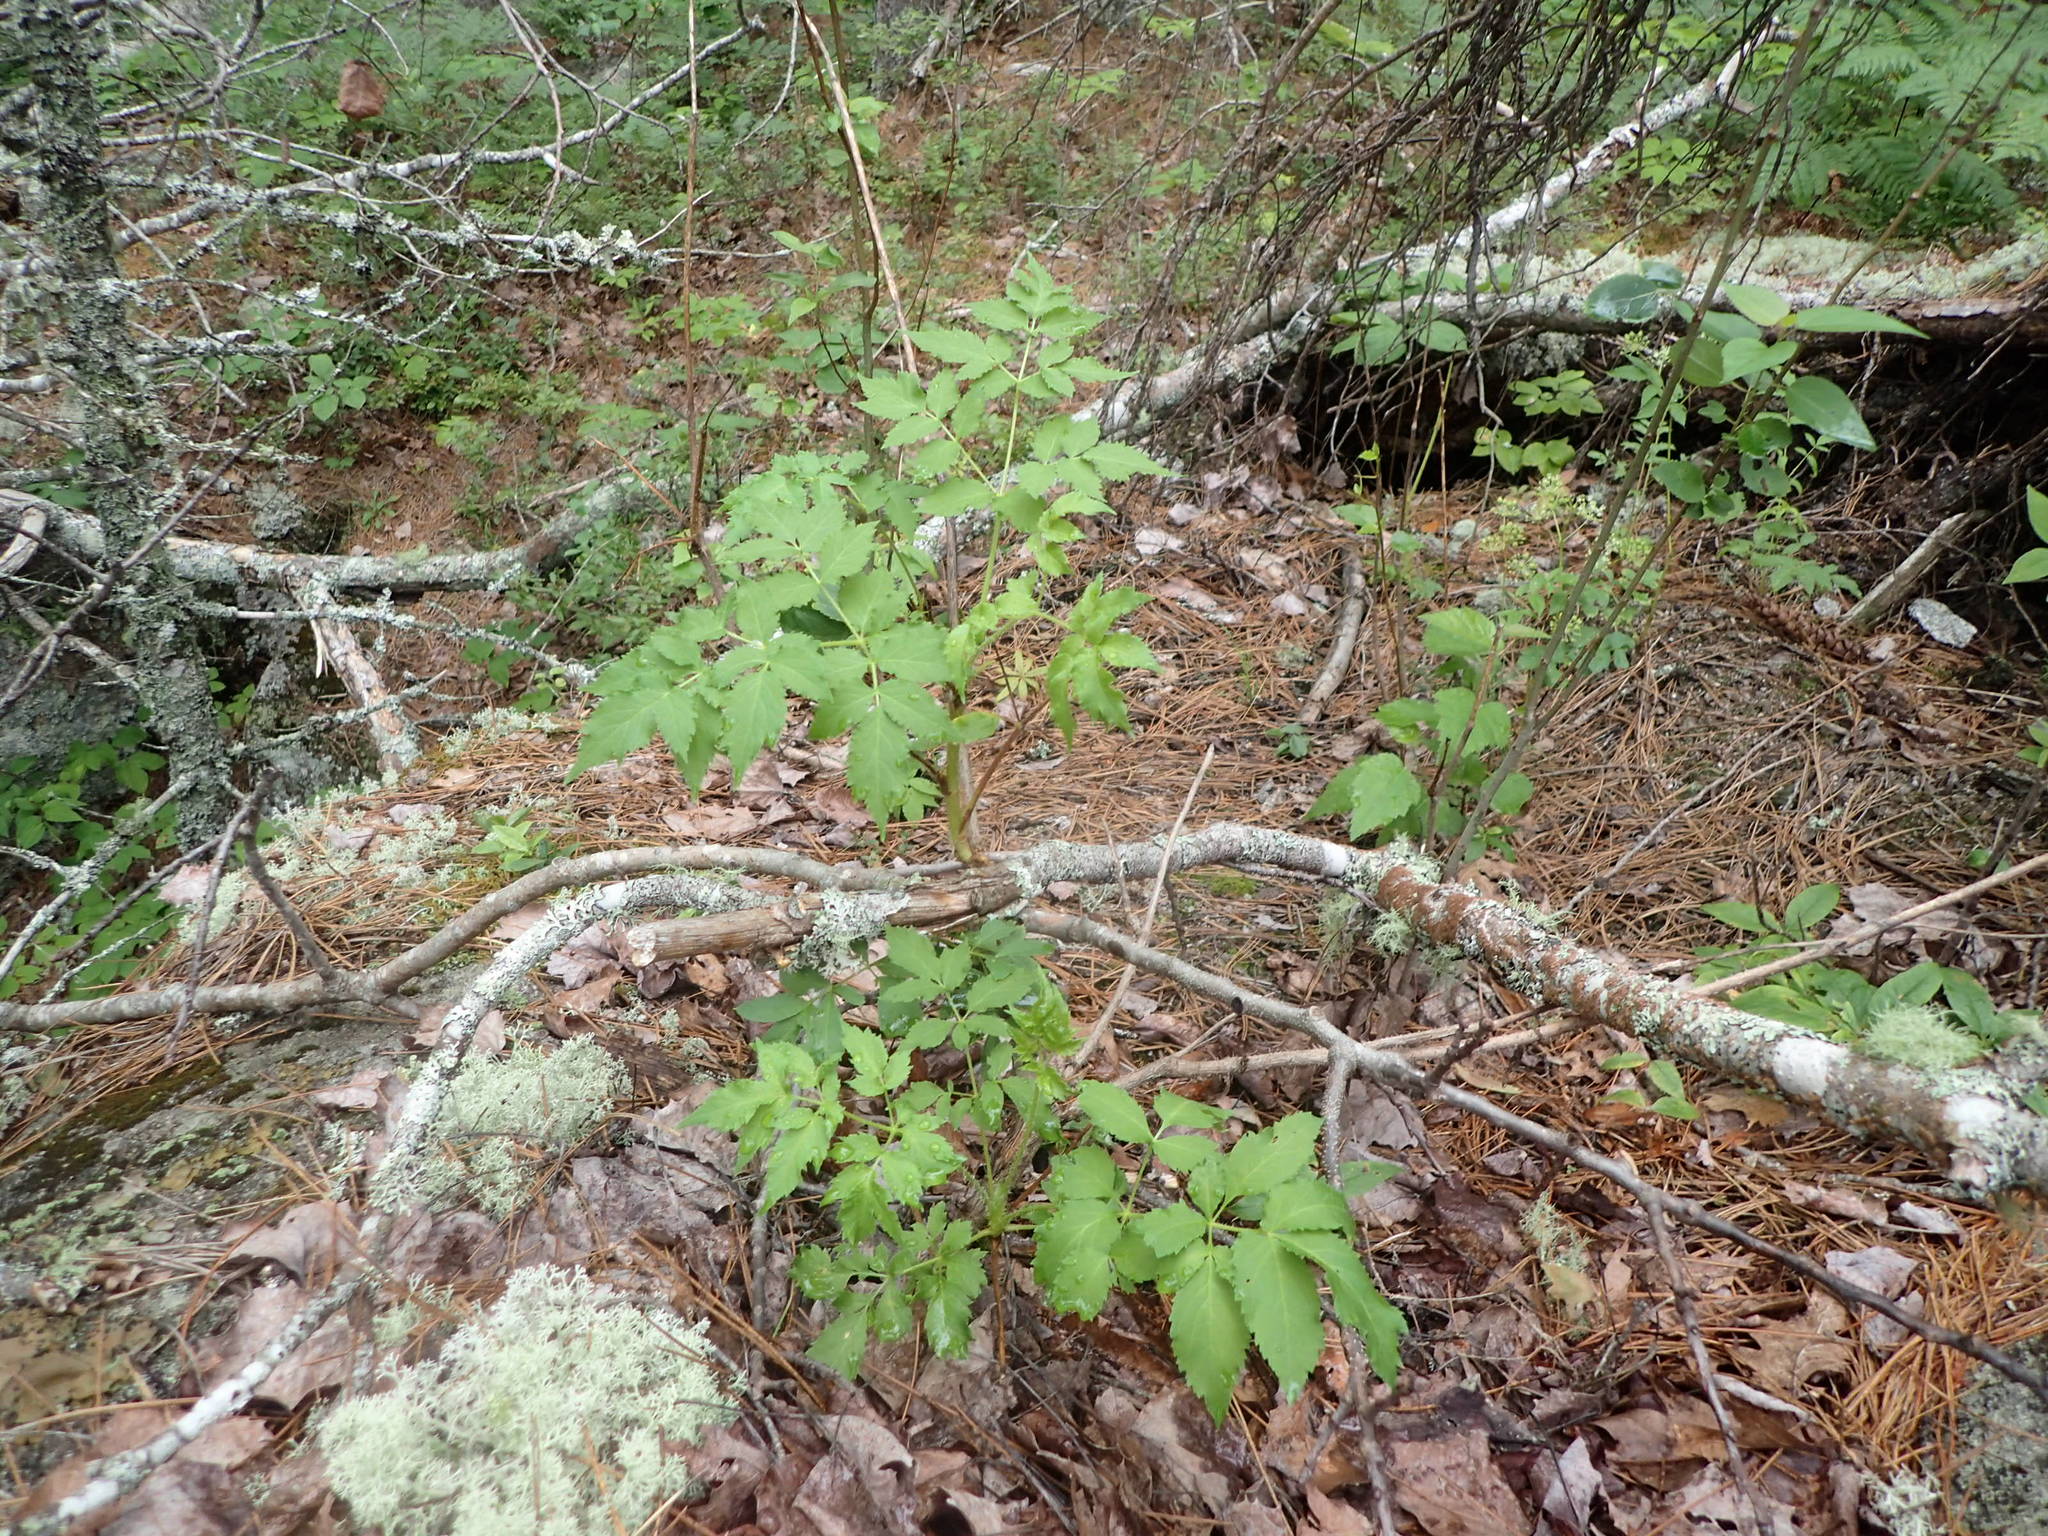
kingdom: Plantae
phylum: Tracheophyta
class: Magnoliopsida
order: Apiales
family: Araliaceae
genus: Aralia
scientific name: Aralia hispida
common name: Bristly sarsaparilla
